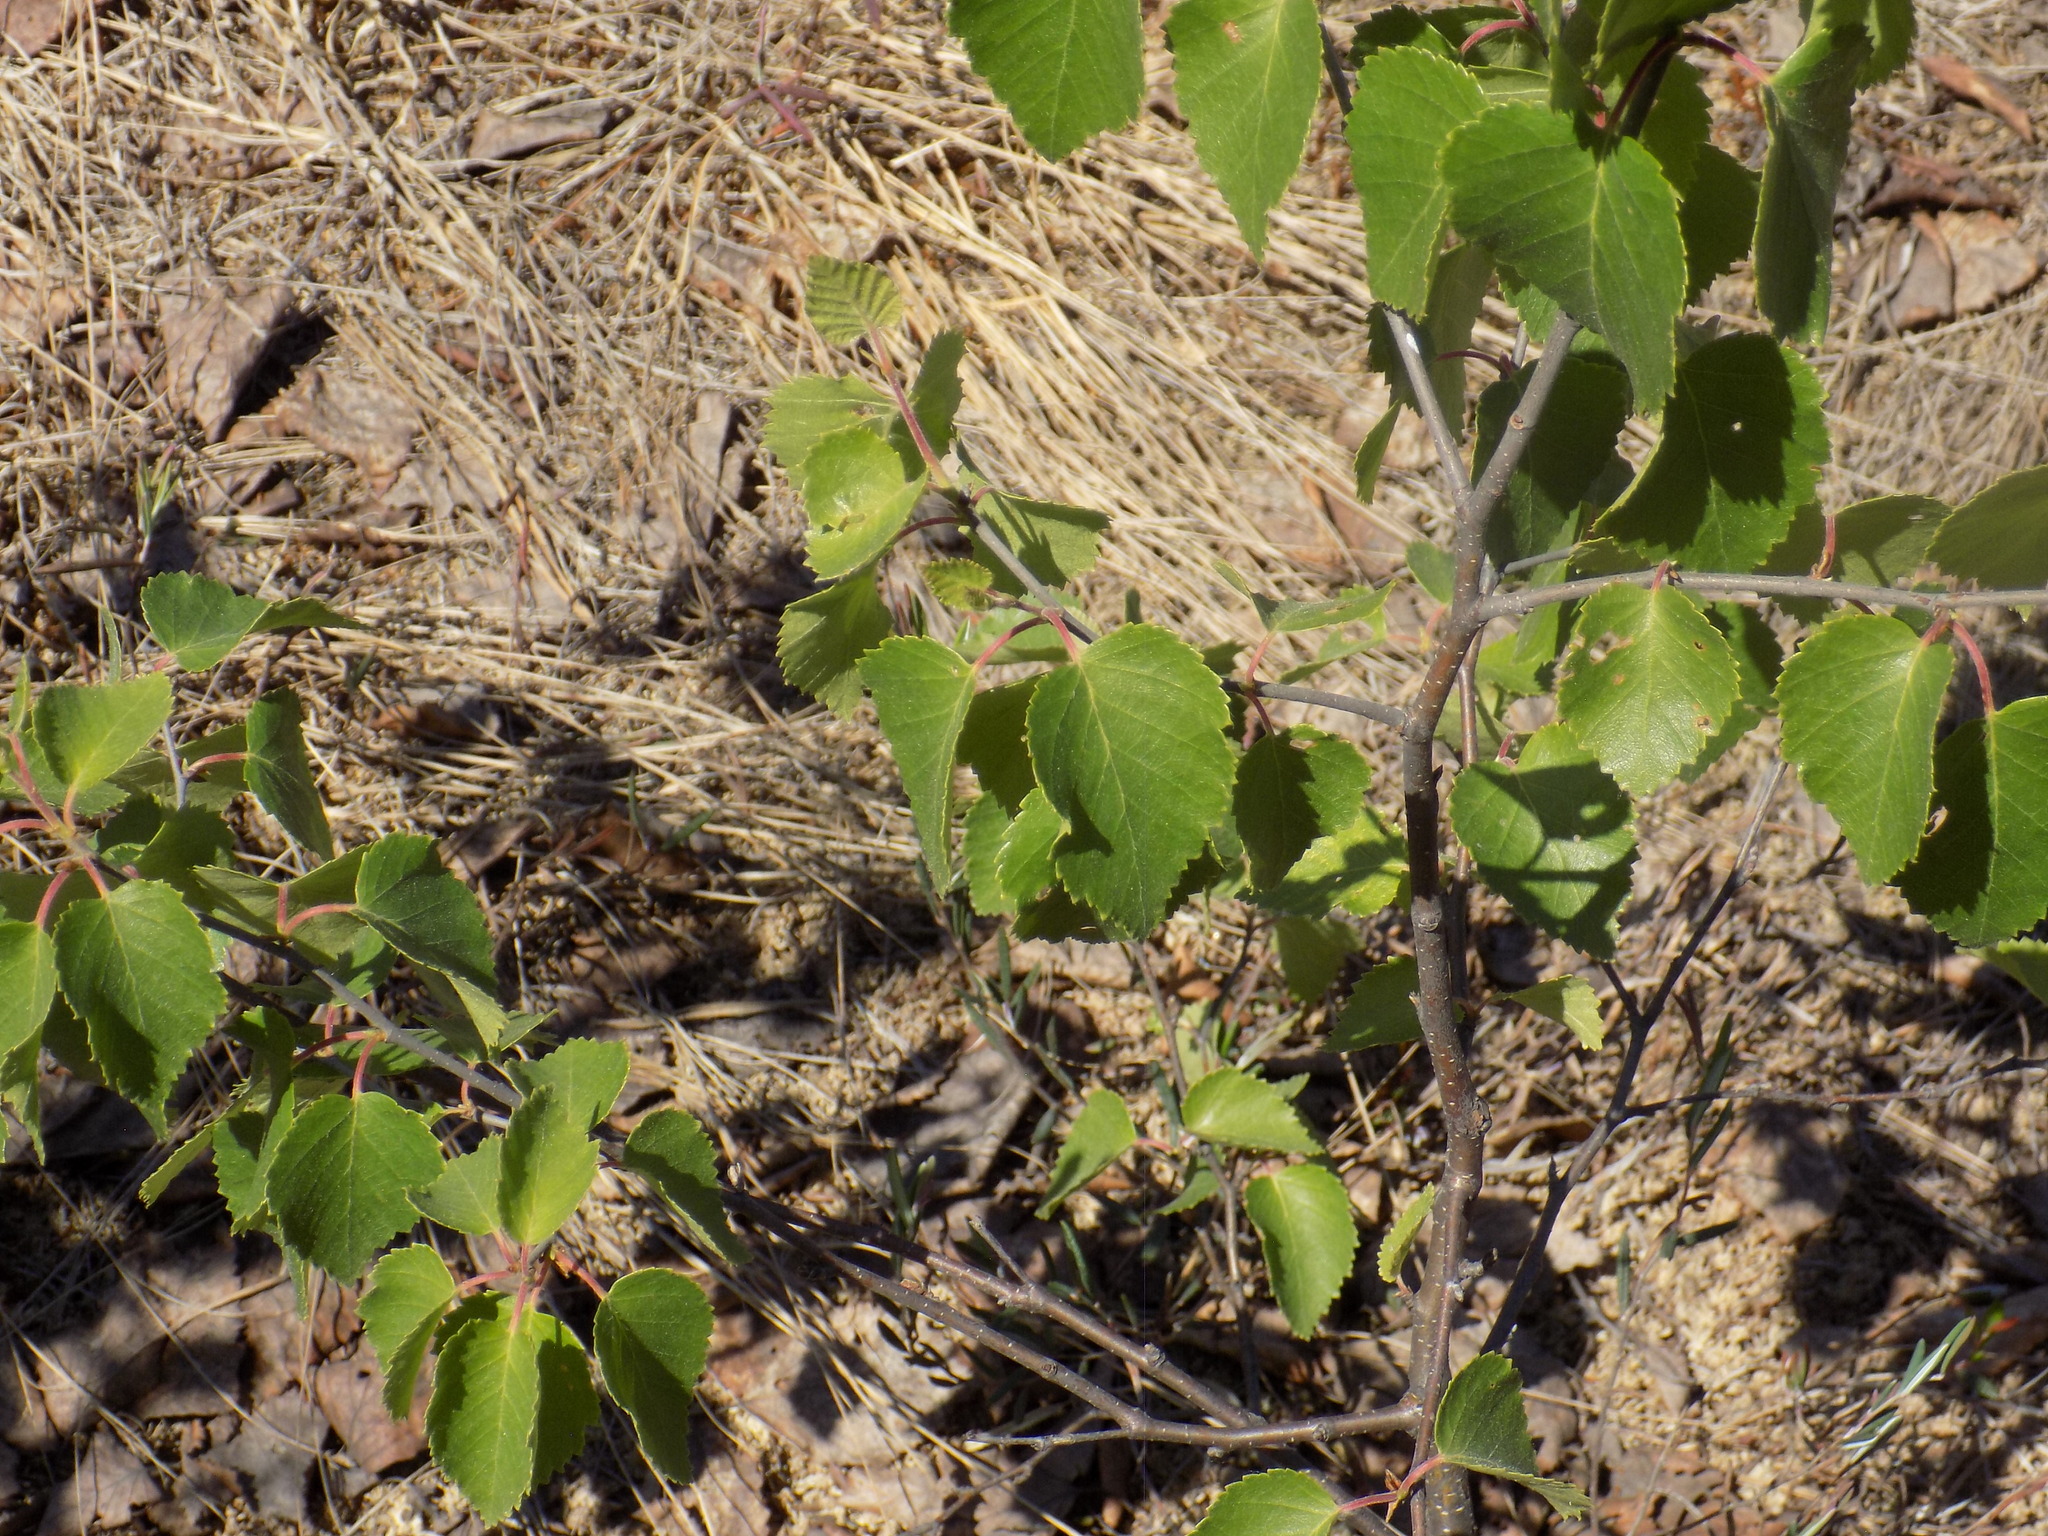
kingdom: Plantae
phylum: Tracheophyta
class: Magnoliopsida
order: Fagales
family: Betulaceae
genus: Betula
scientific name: Betula pubescens
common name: Downy birch
